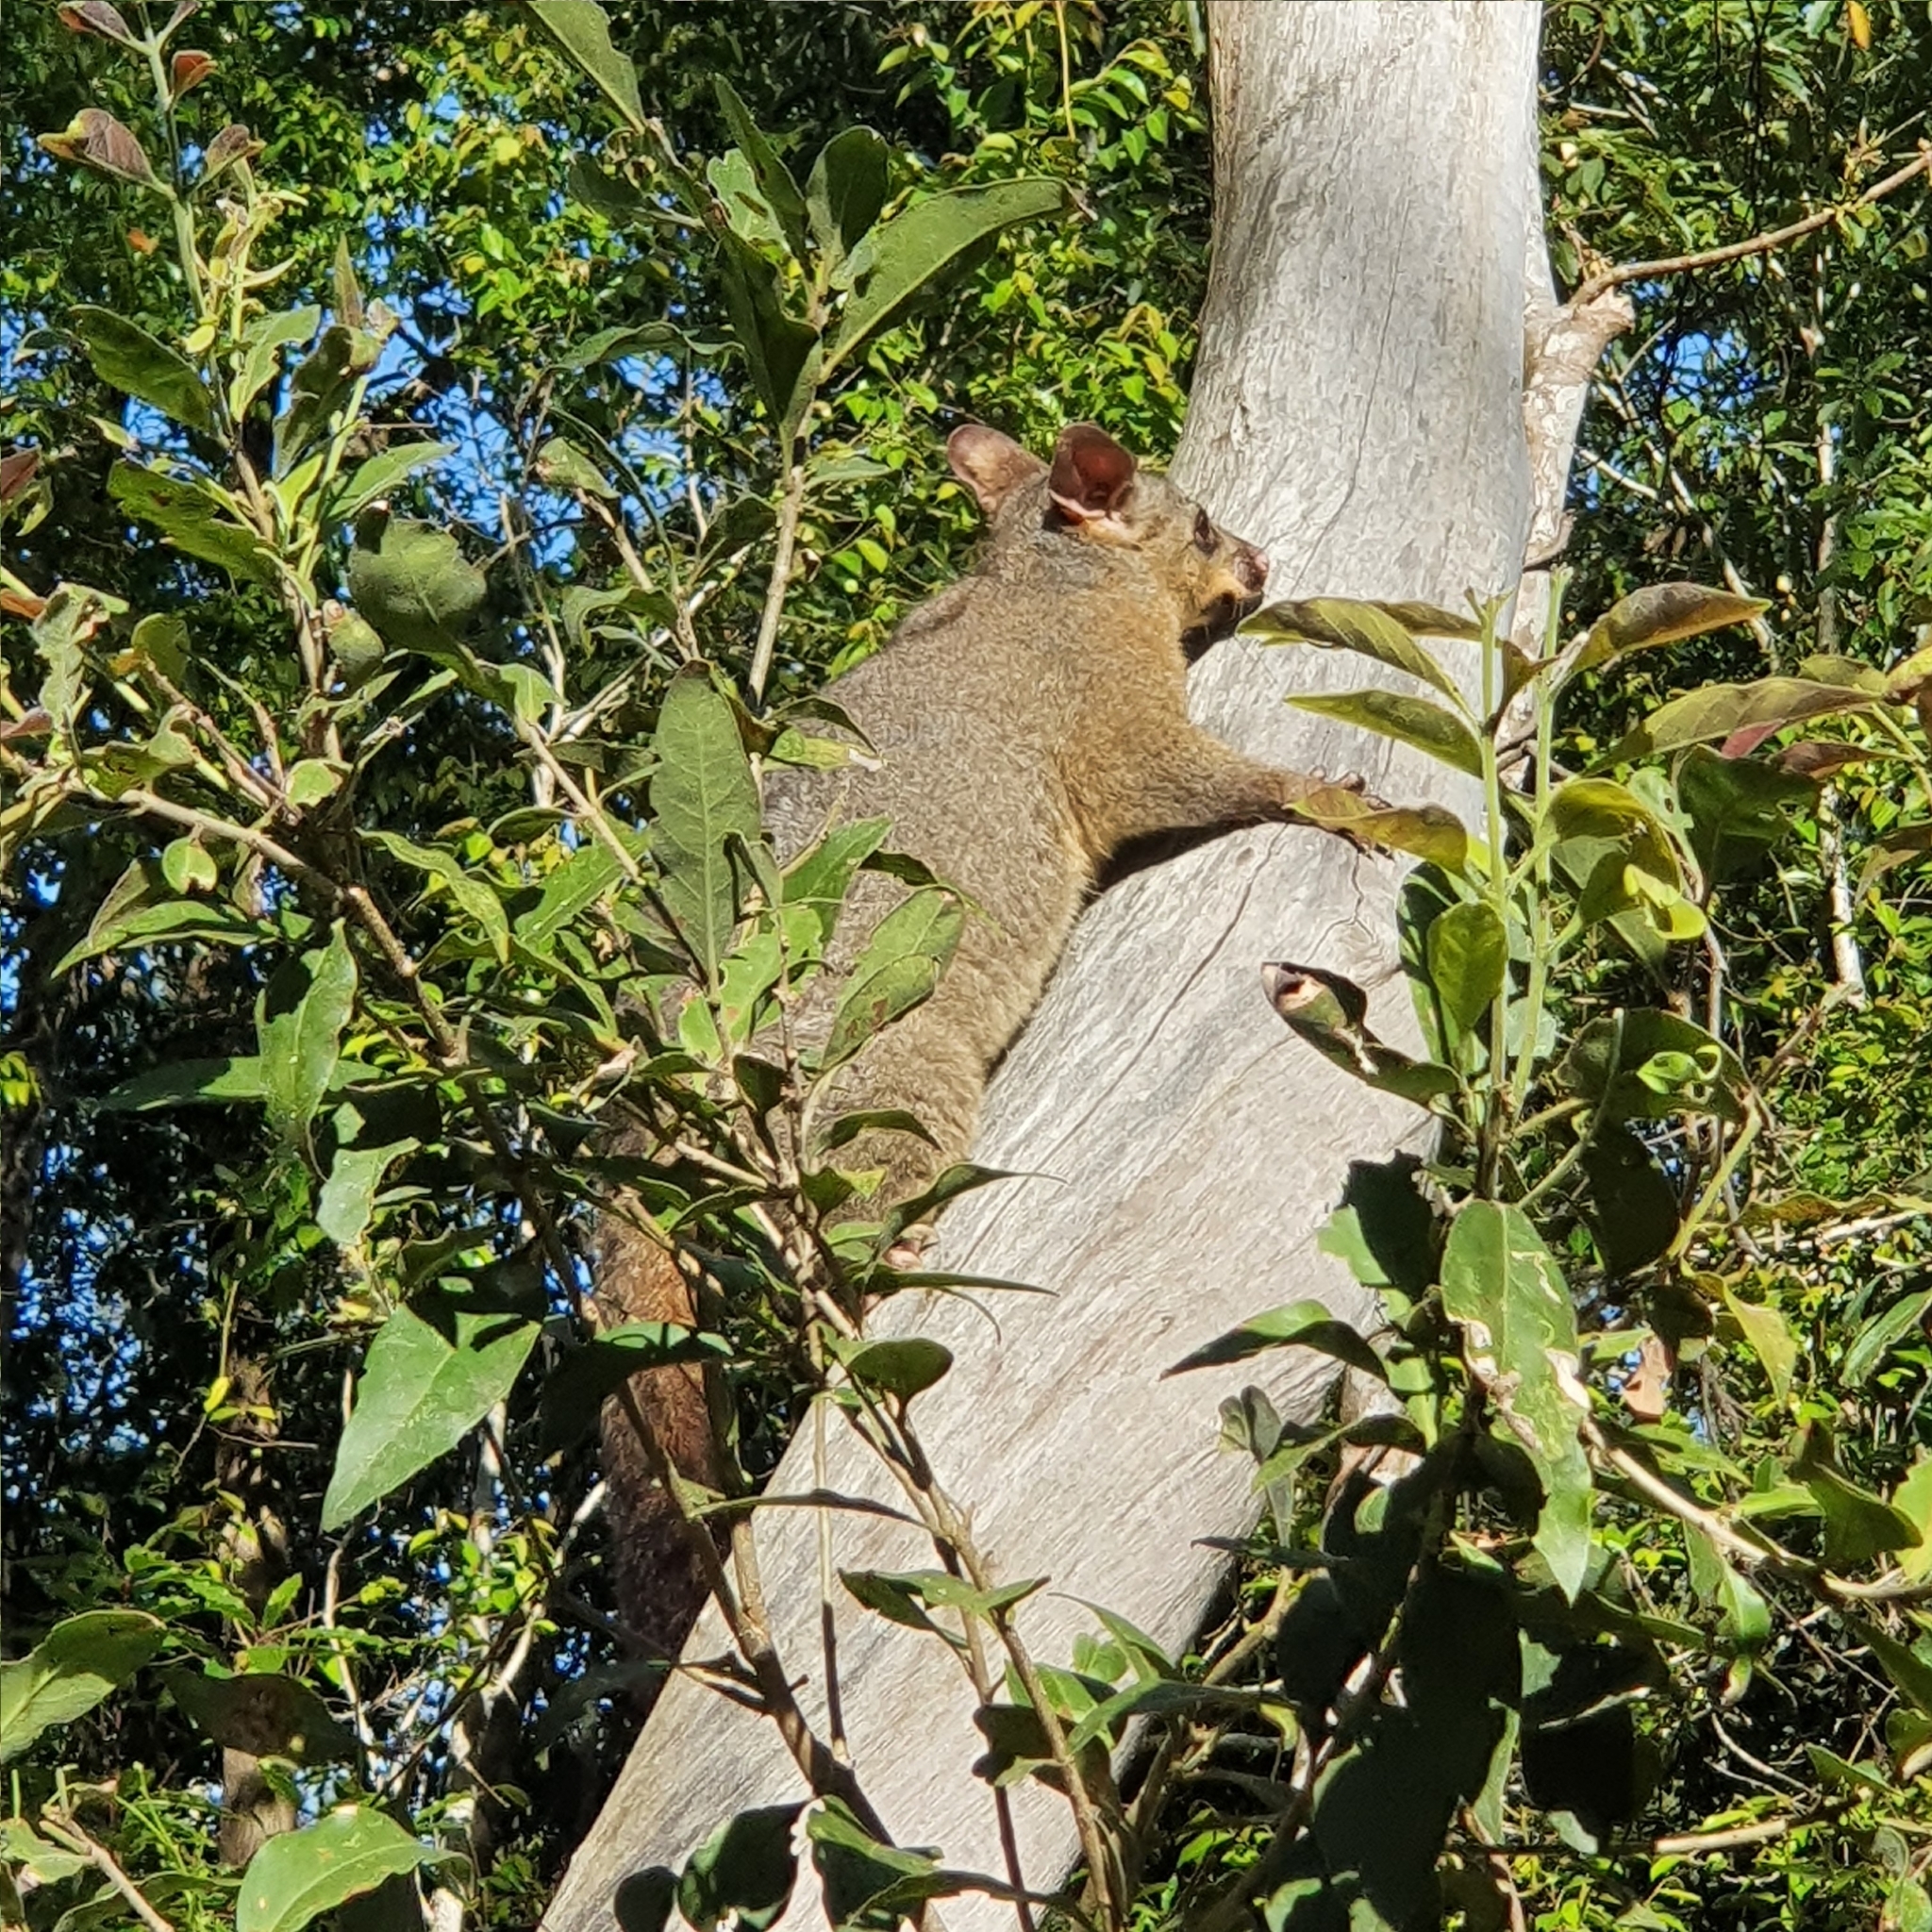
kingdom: Animalia
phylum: Chordata
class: Mammalia
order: Diprotodontia
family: Phalangeridae
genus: Trichosurus
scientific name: Trichosurus vulpecula
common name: Common brushtail
